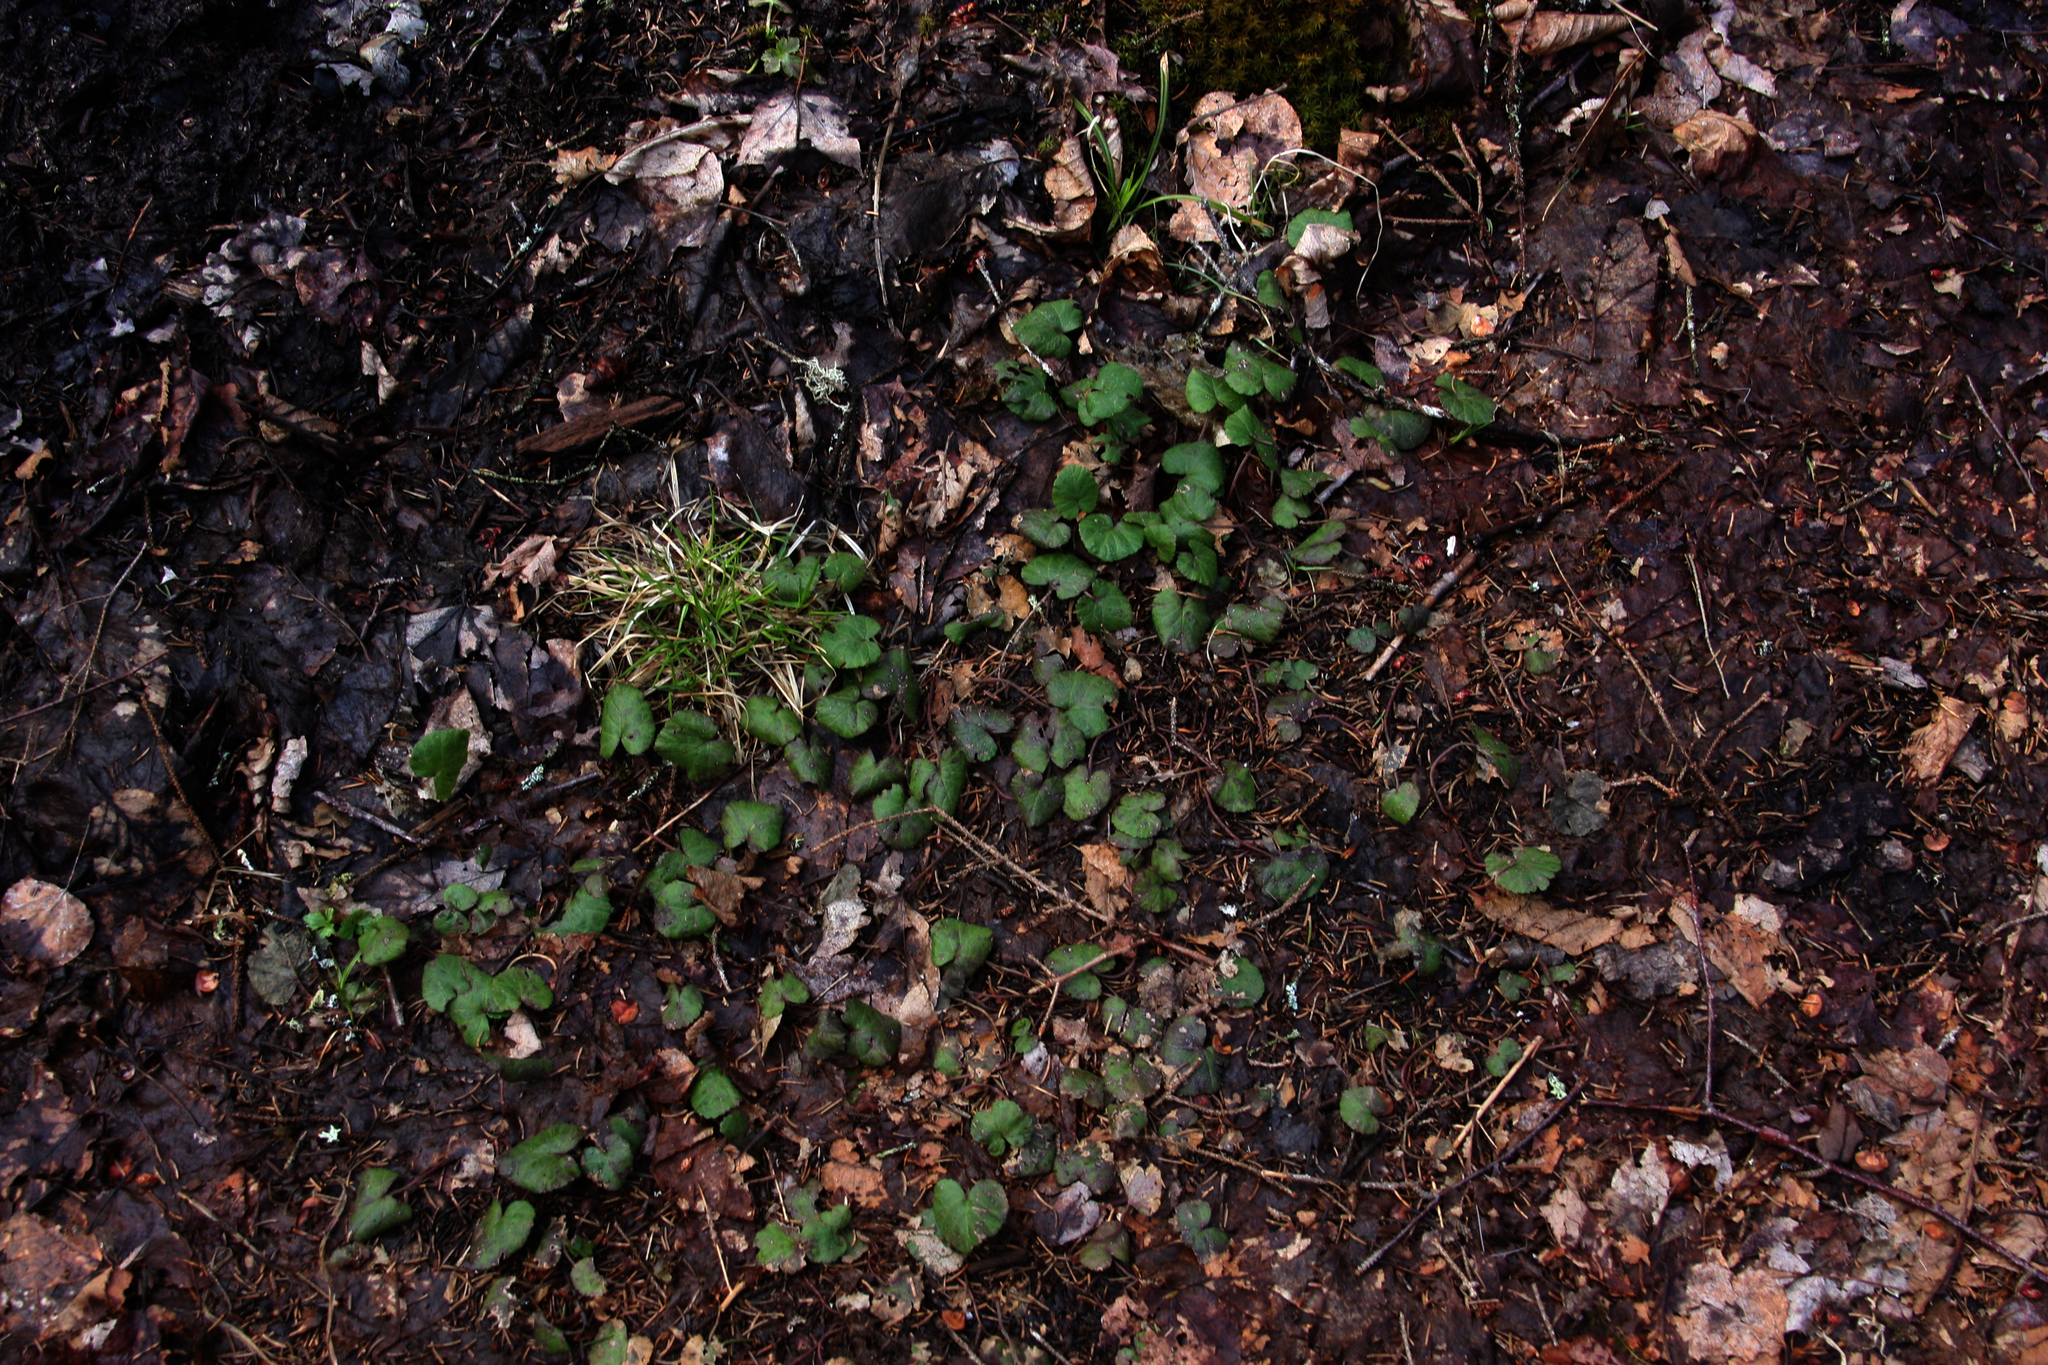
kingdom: Plantae
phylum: Tracheophyta
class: Magnoliopsida
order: Rosales
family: Rosaceae
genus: Dalibarda
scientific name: Dalibarda repens
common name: Dewdrop
